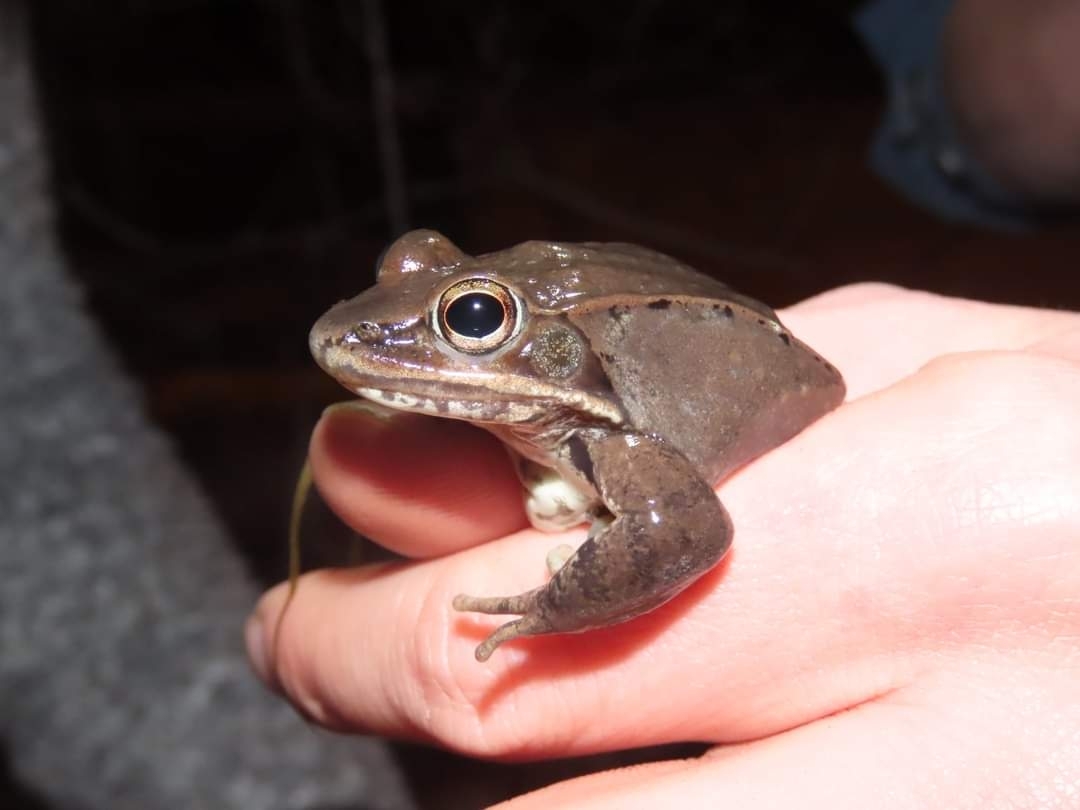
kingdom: Animalia
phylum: Chordata
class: Amphibia
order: Anura
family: Ranidae
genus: Lithobates
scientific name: Lithobates sylvaticus
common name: Wood frog
